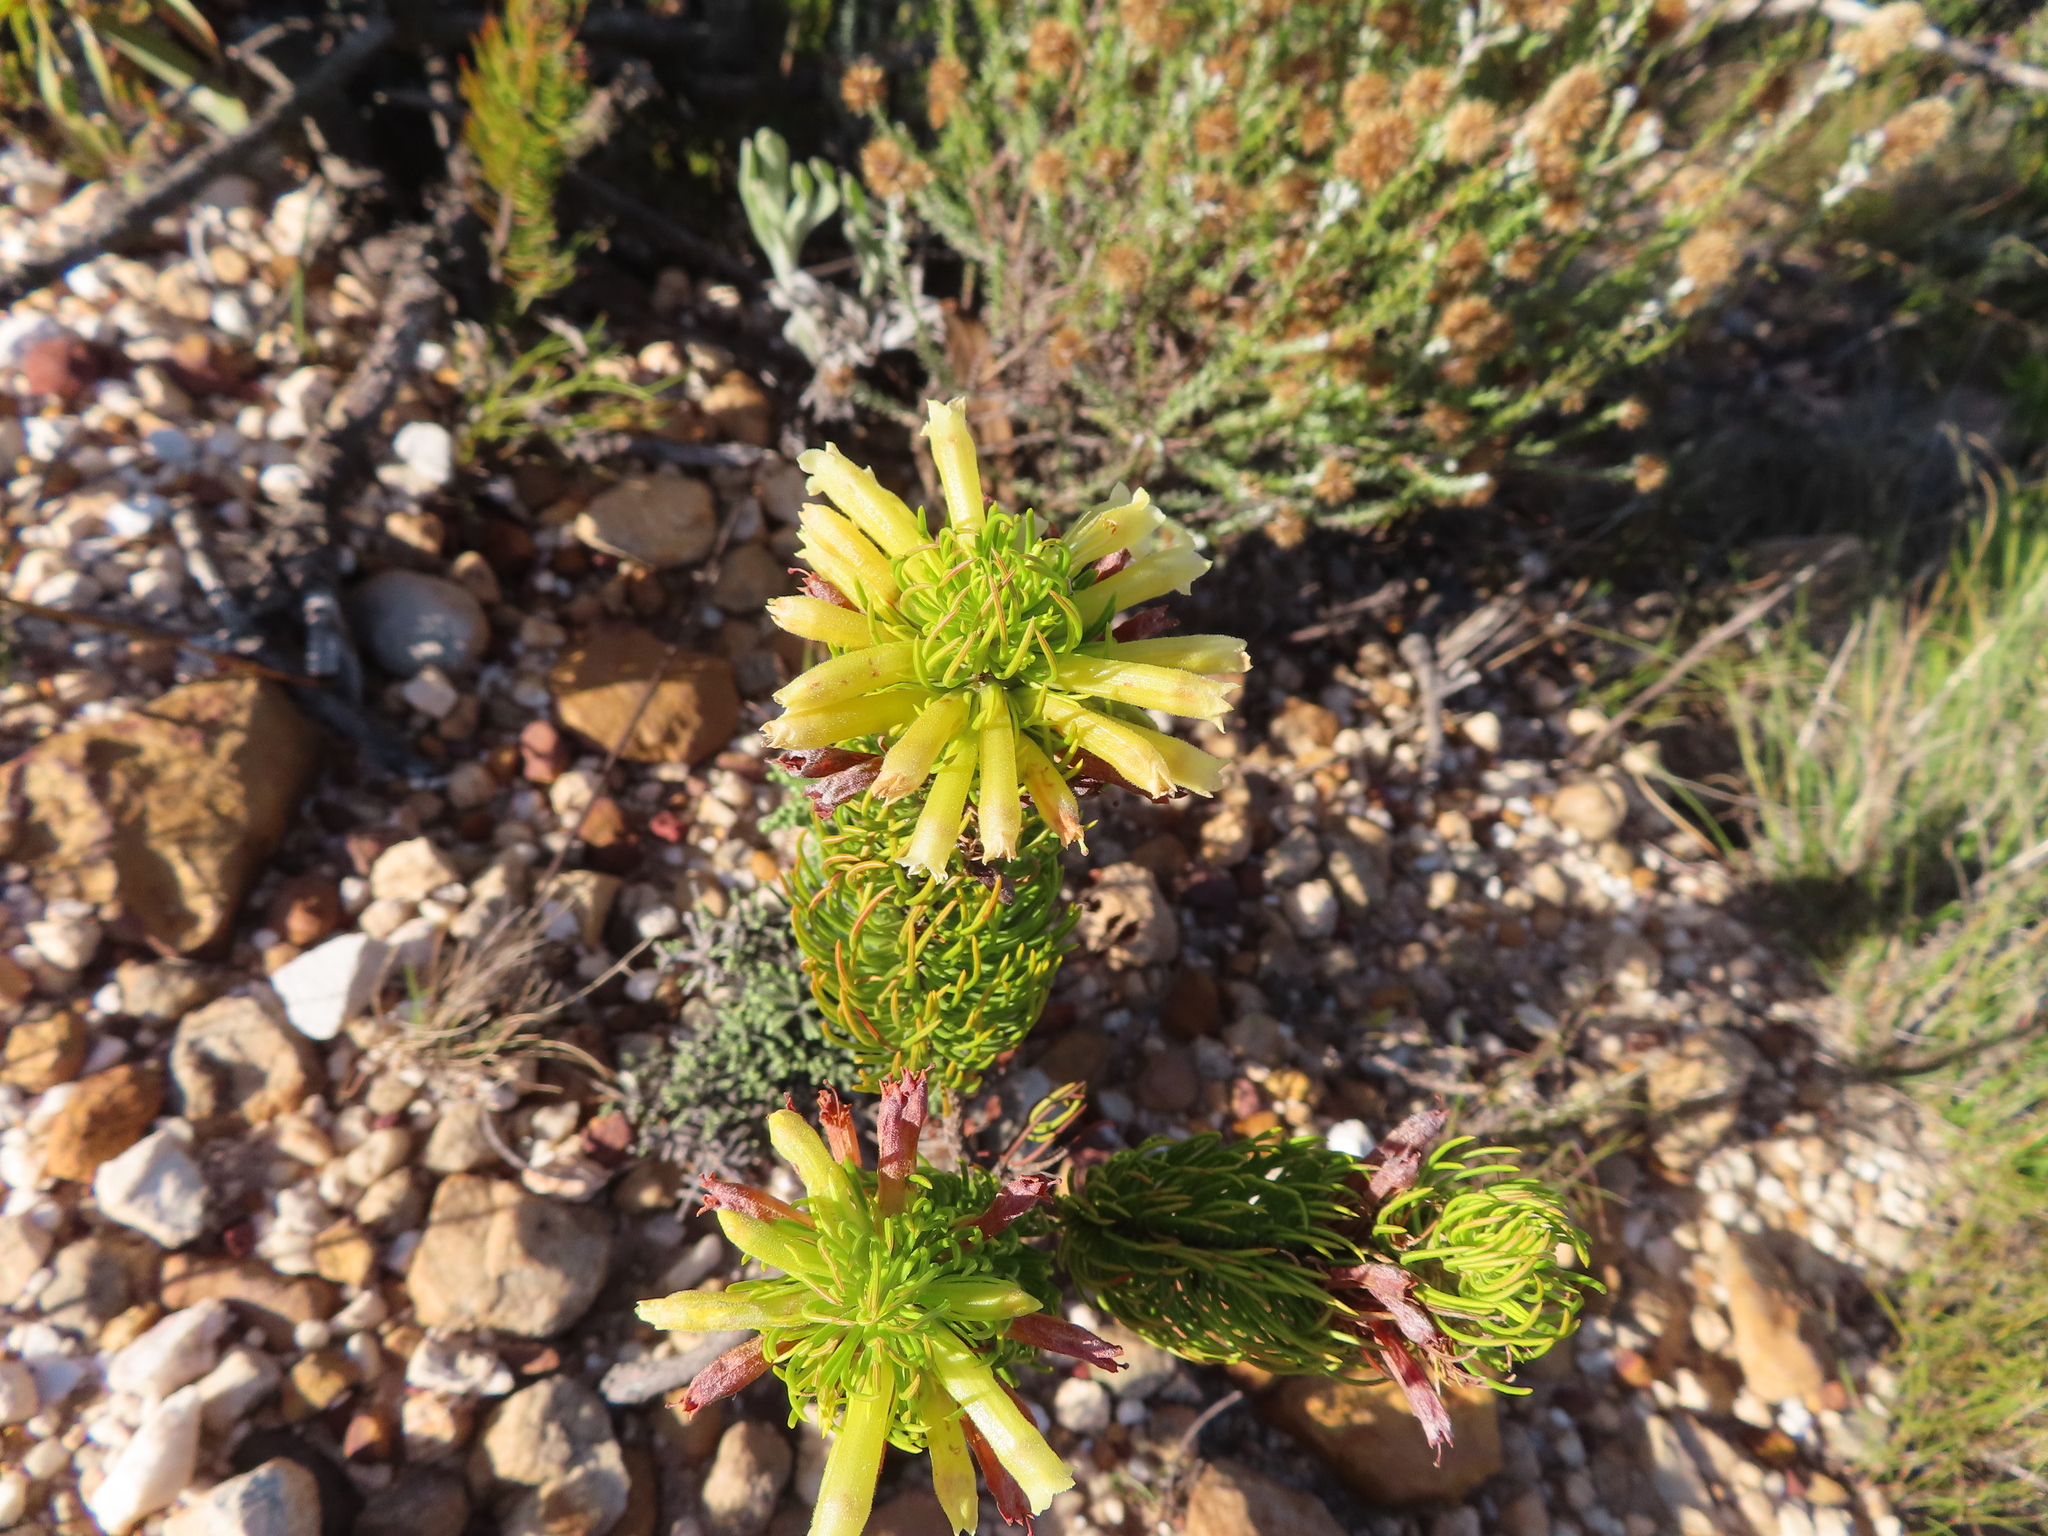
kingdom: Plantae
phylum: Tracheophyta
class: Magnoliopsida
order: Ericales
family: Ericaceae
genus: Erica
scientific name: Erica viscaria
